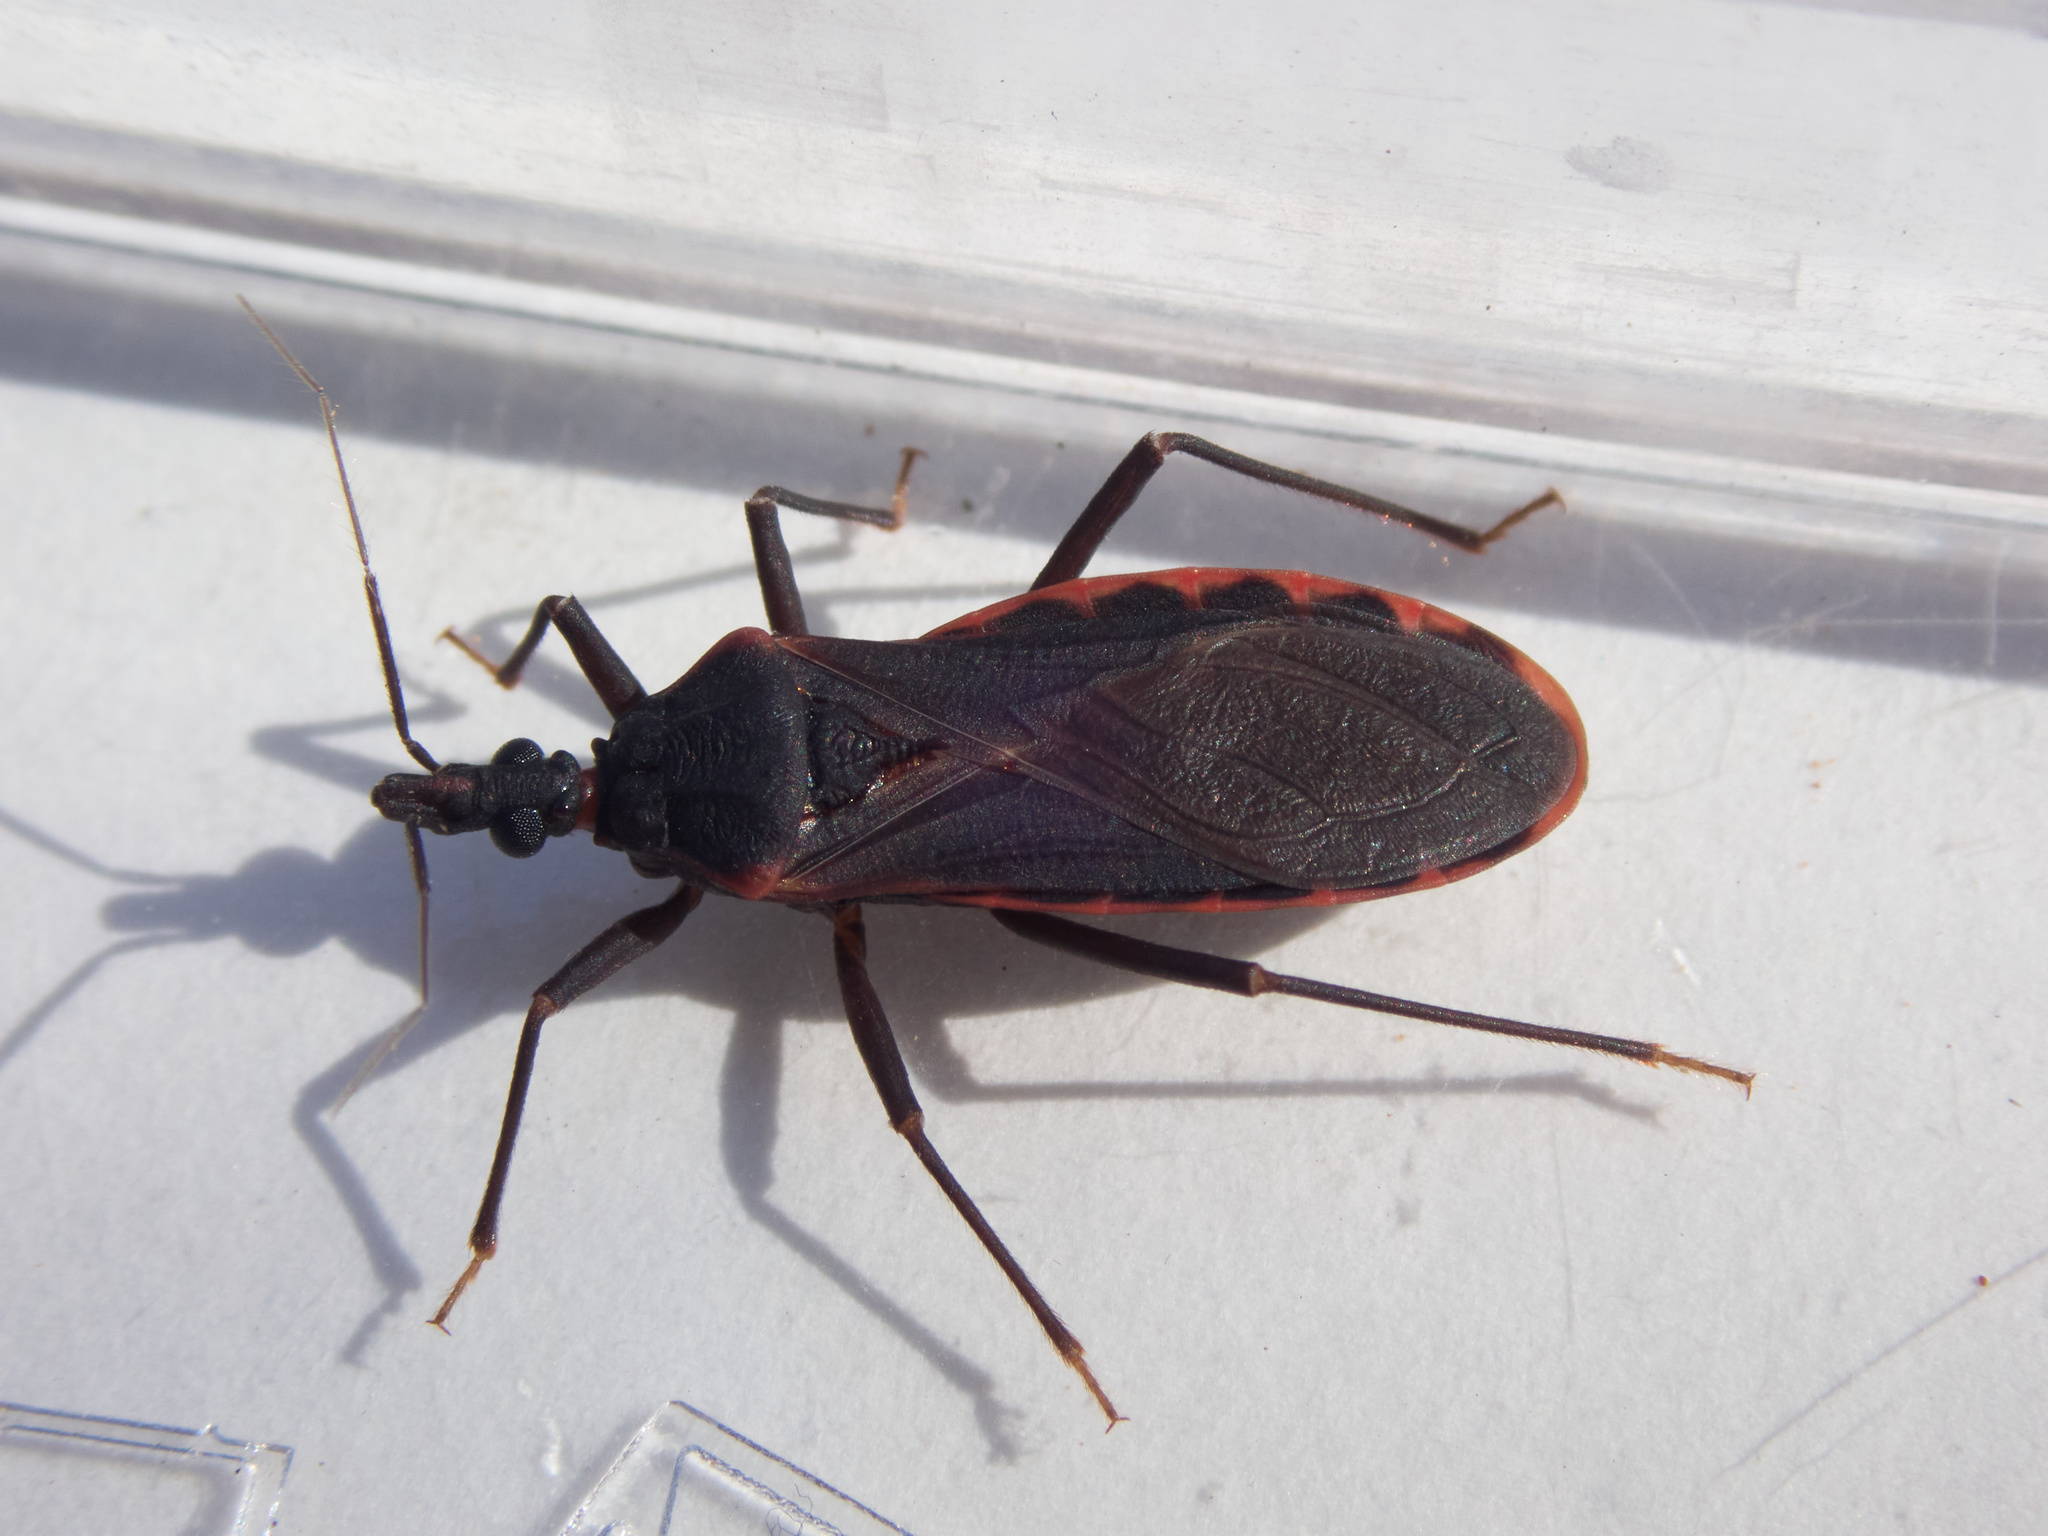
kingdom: Animalia
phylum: Arthropoda
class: Insecta
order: Hemiptera
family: Reduviidae
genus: Triatoma
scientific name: Triatoma rubida
